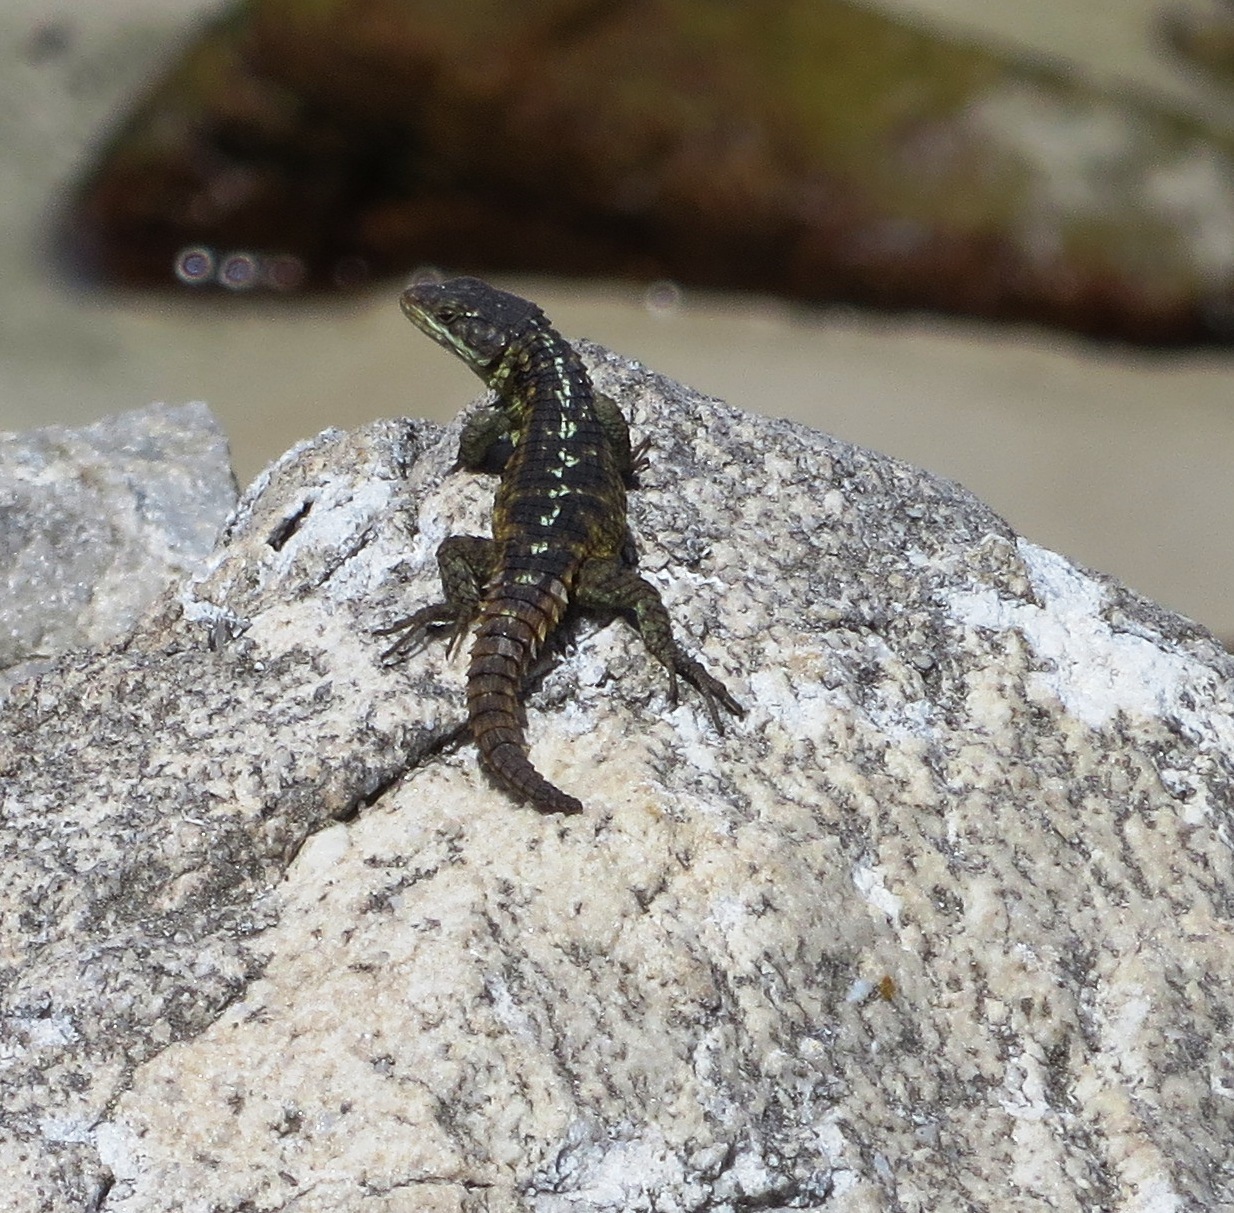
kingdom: Animalia
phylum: Chordata
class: Squamata
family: Cordylidae
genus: Cordylus
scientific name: Cordylus cordylus
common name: Cape girdled lizard
